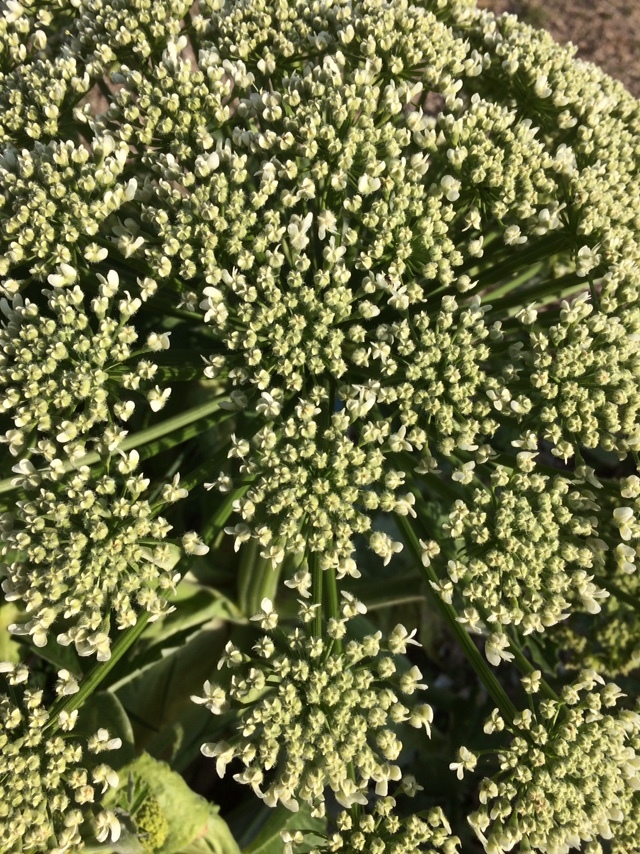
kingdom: Plantae
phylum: Tracheophyta
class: Magnoliopsida
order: Apiales
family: Apiaceae
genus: Heracleum
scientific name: Heracleum stevenii
